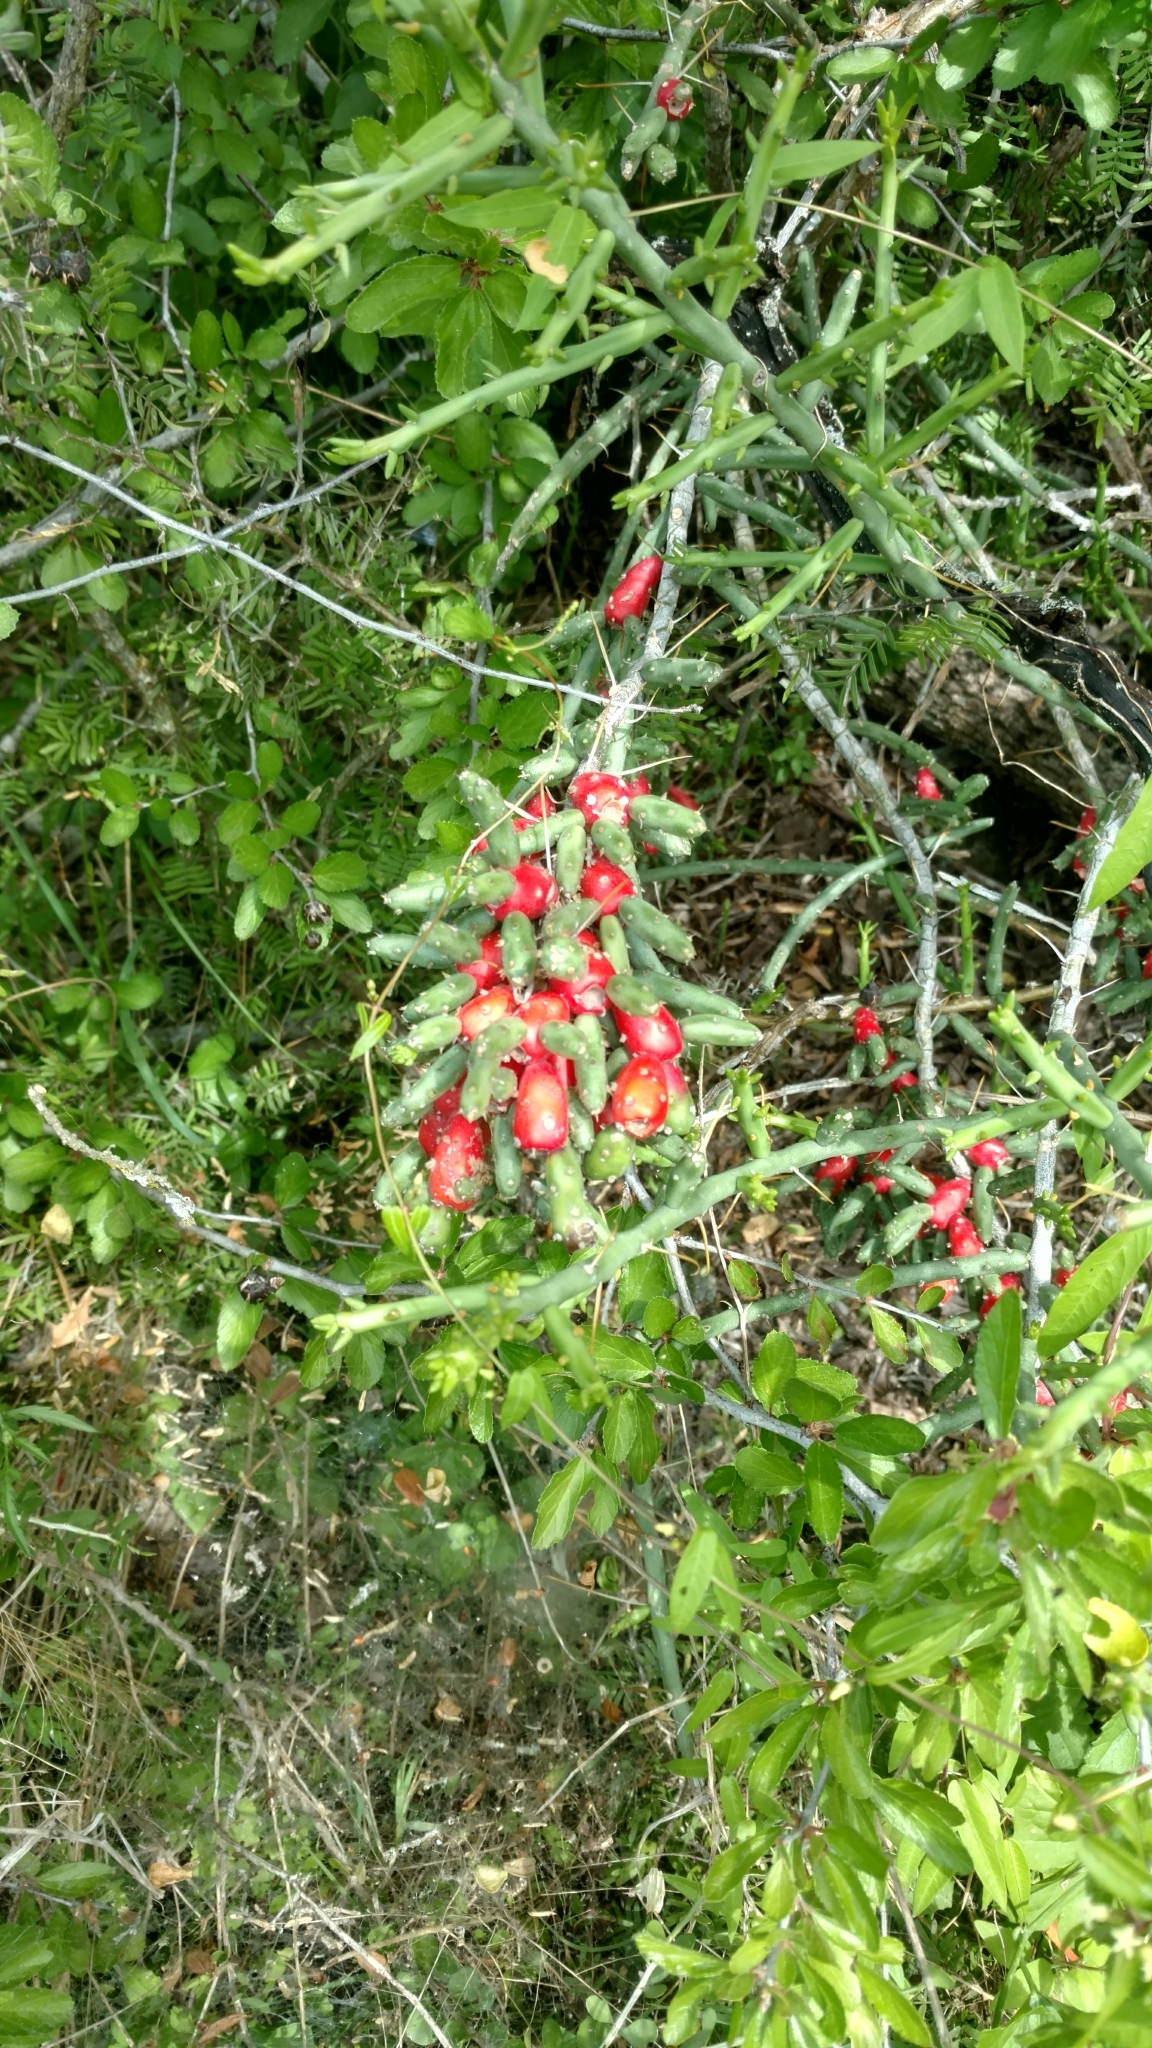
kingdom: Plantae
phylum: Tracheophyta
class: Magnoliopsida
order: Caryophyllales
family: Cactaceae
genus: Cylindropuntia
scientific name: Cylindropuntia leptocaulis
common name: Christmas cactus
